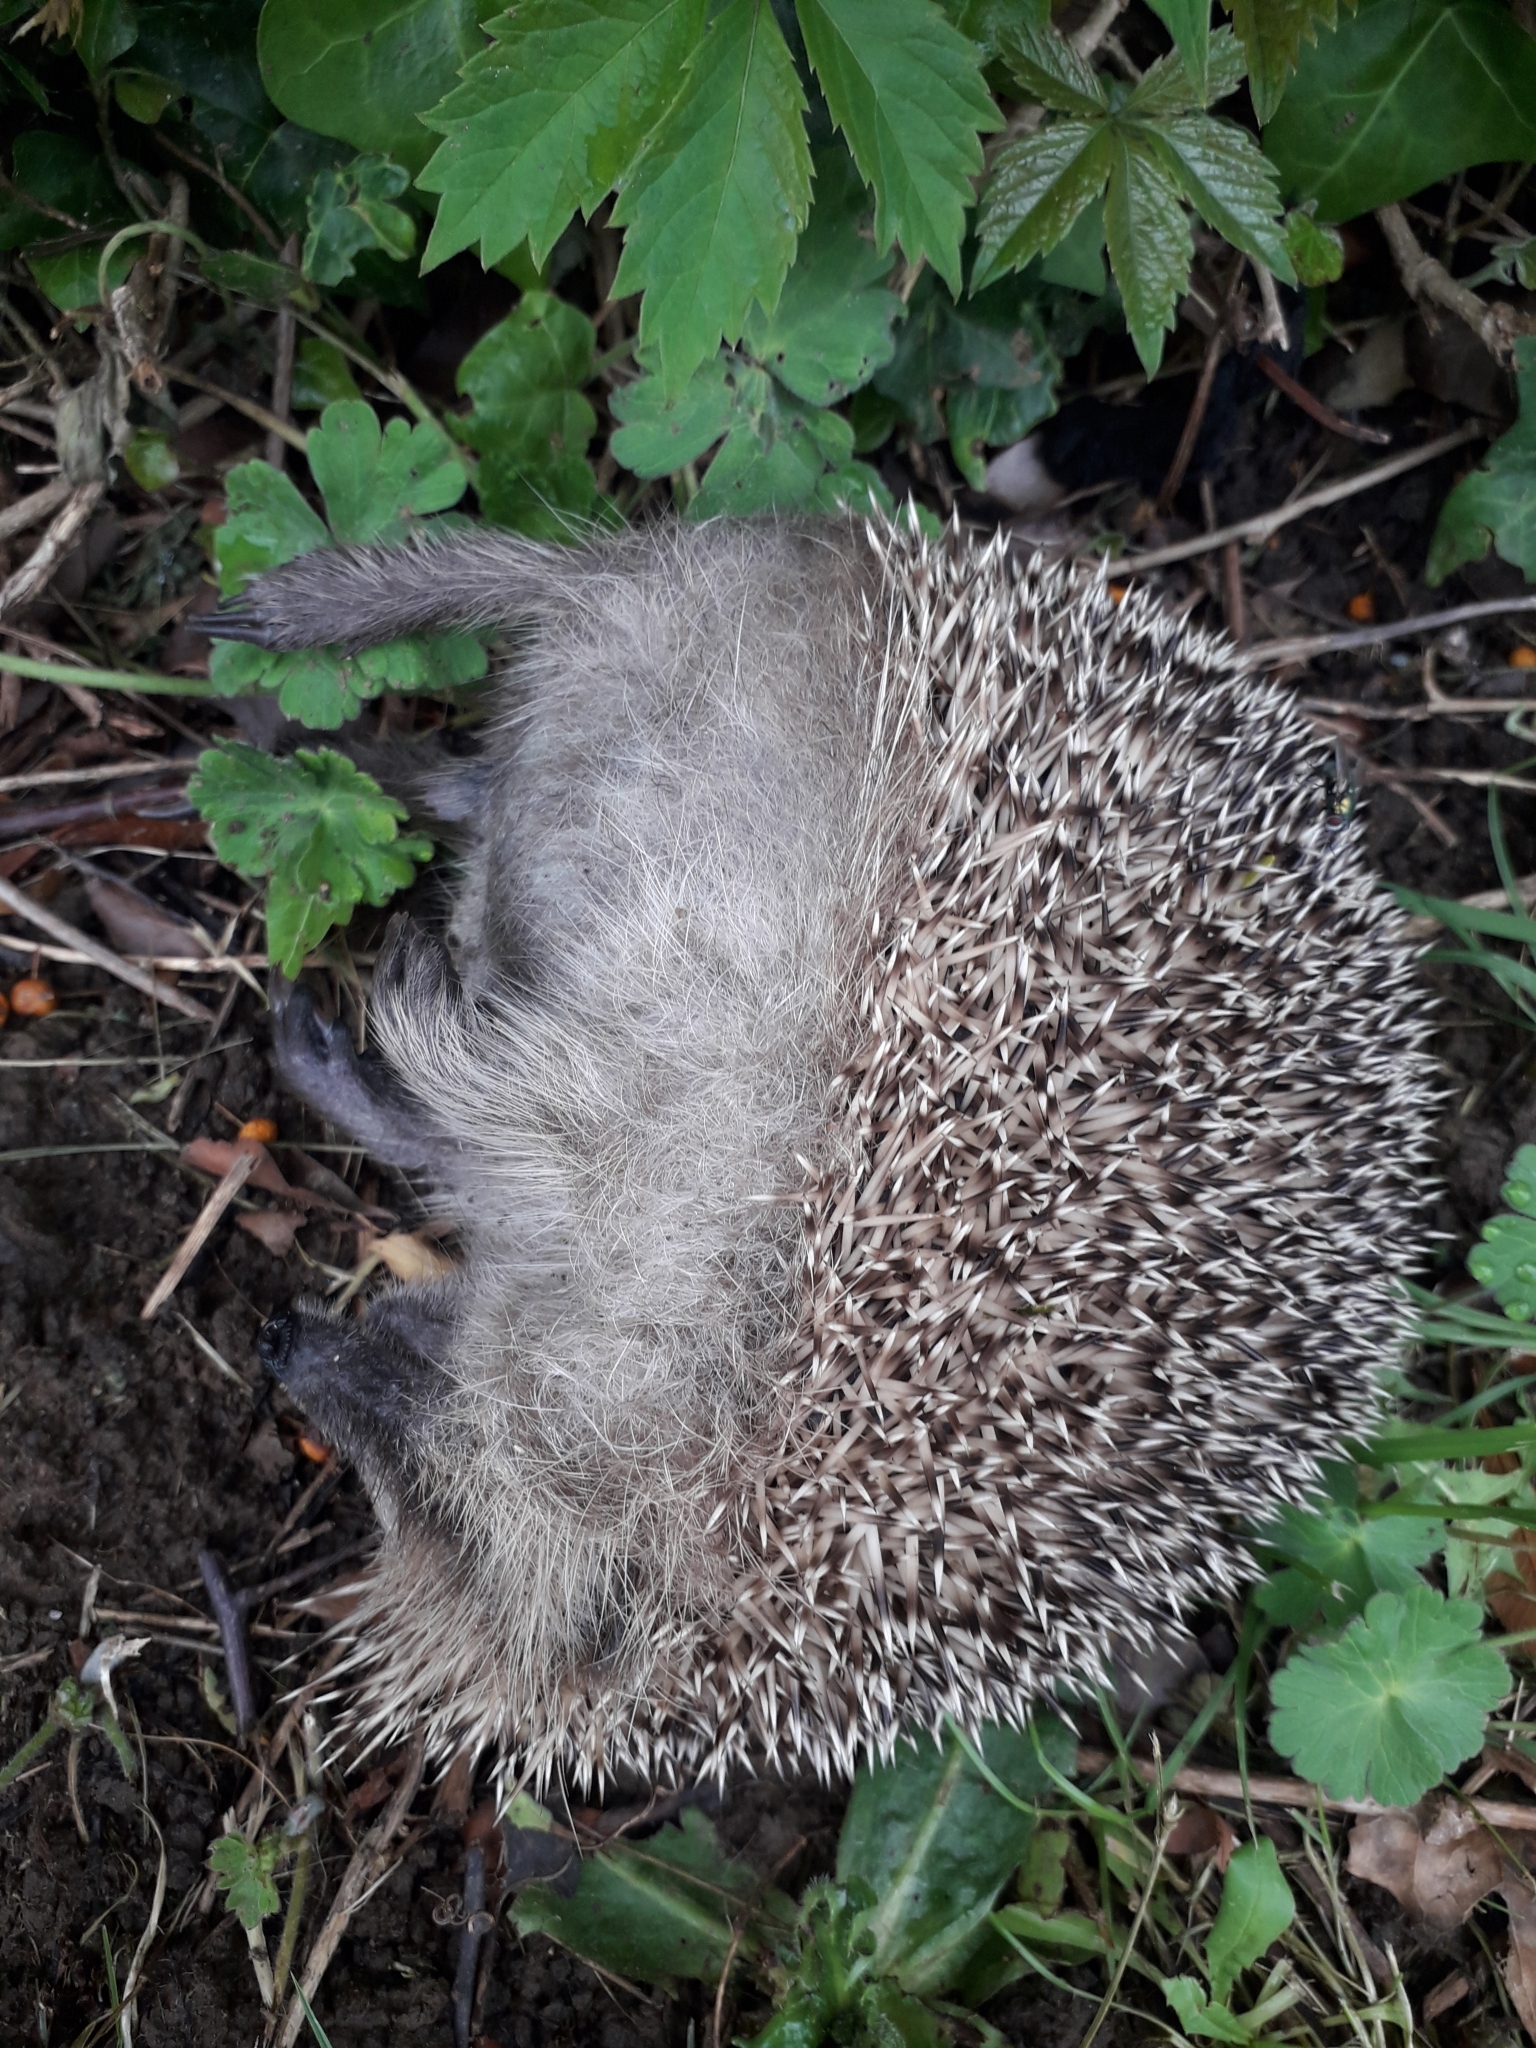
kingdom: Animalia
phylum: Chordata
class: Mammalia
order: Erinaceomorpha
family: Erinaceidae
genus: Erinaceus
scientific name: Erinaceus europaeus
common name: West european hedgehog
